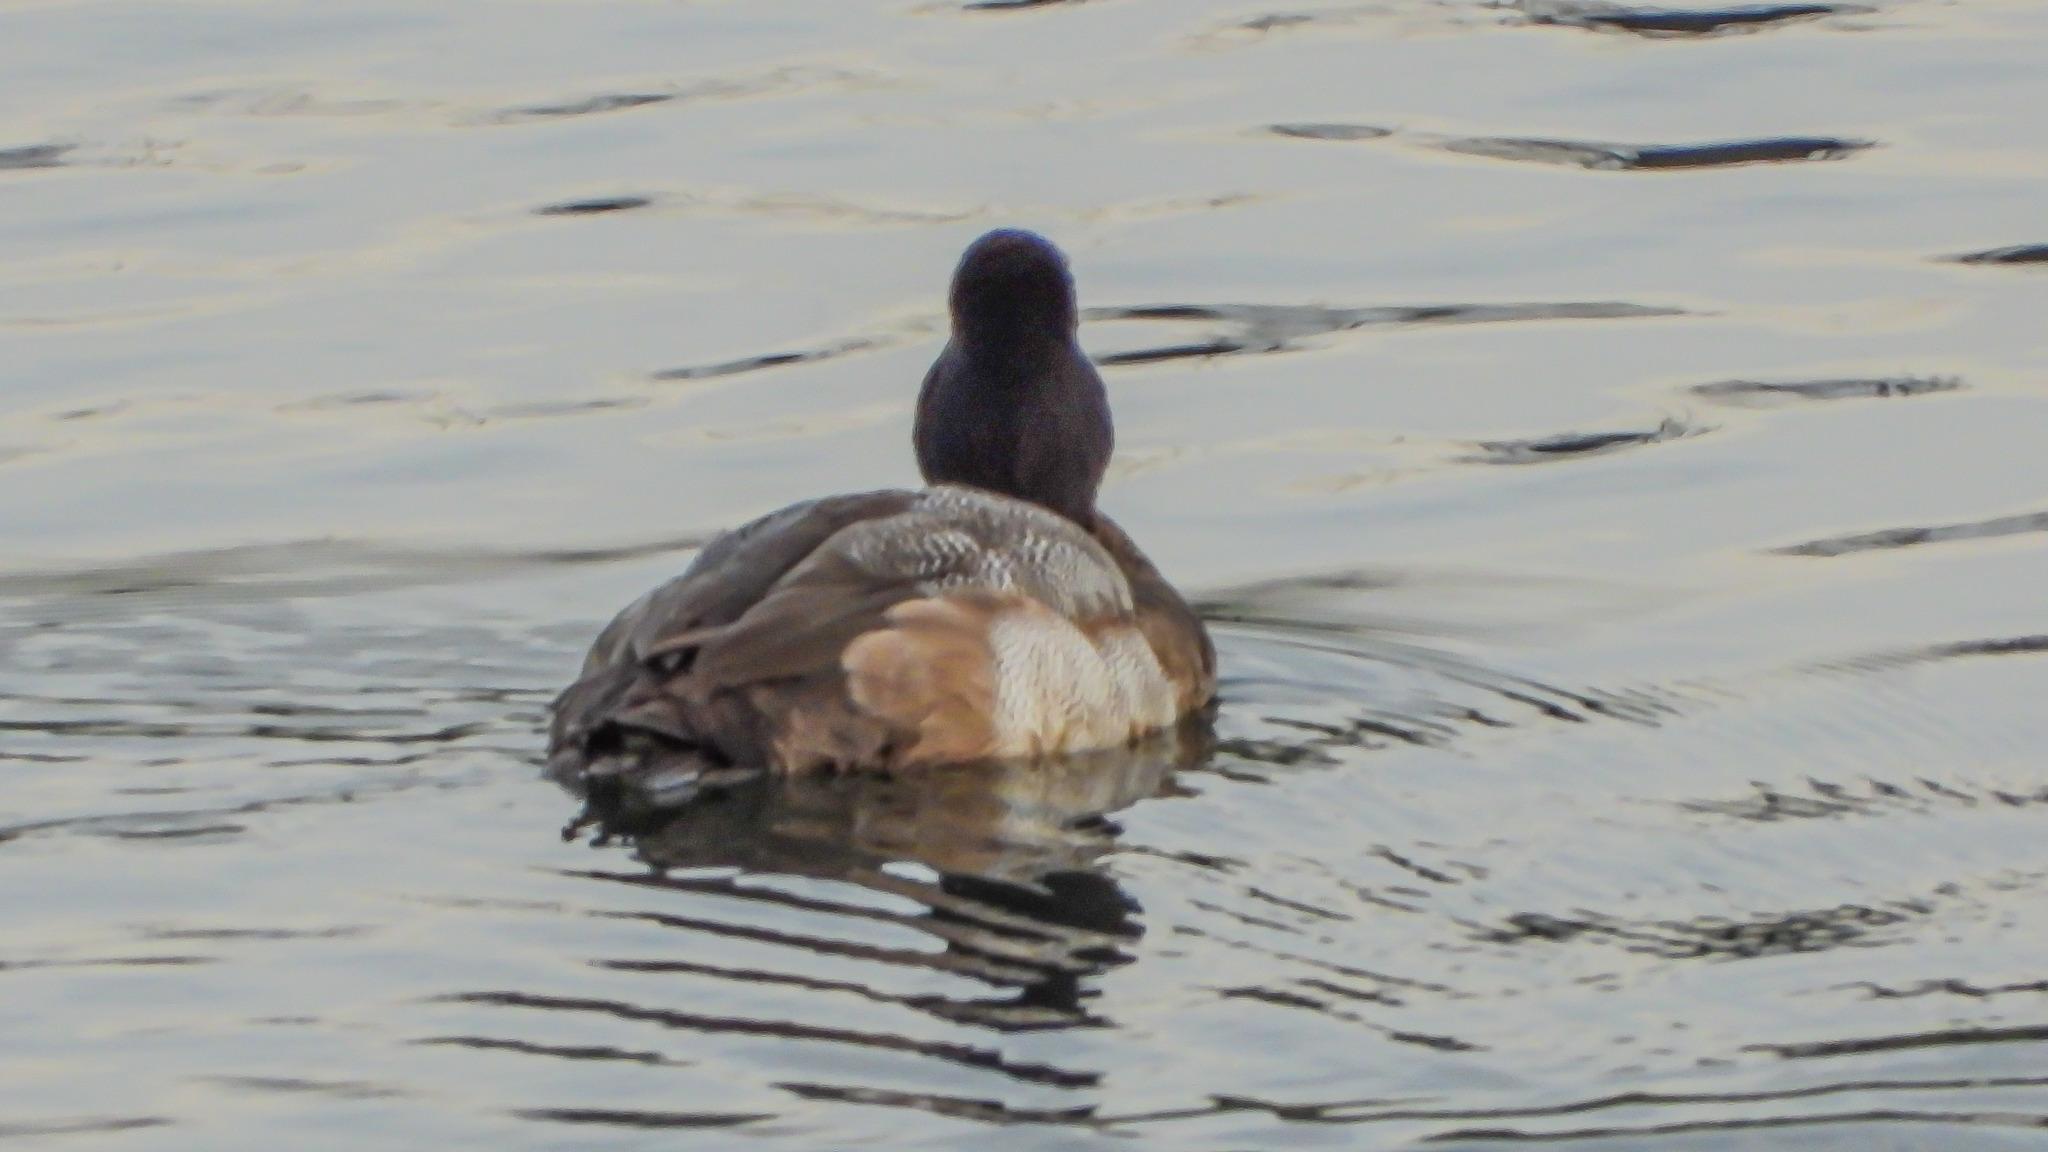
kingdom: Animalia
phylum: Chordata
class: Aves
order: Anseriformes
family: Anatidae
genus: Aythya
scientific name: Aythya affinis
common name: Lesser scaup
